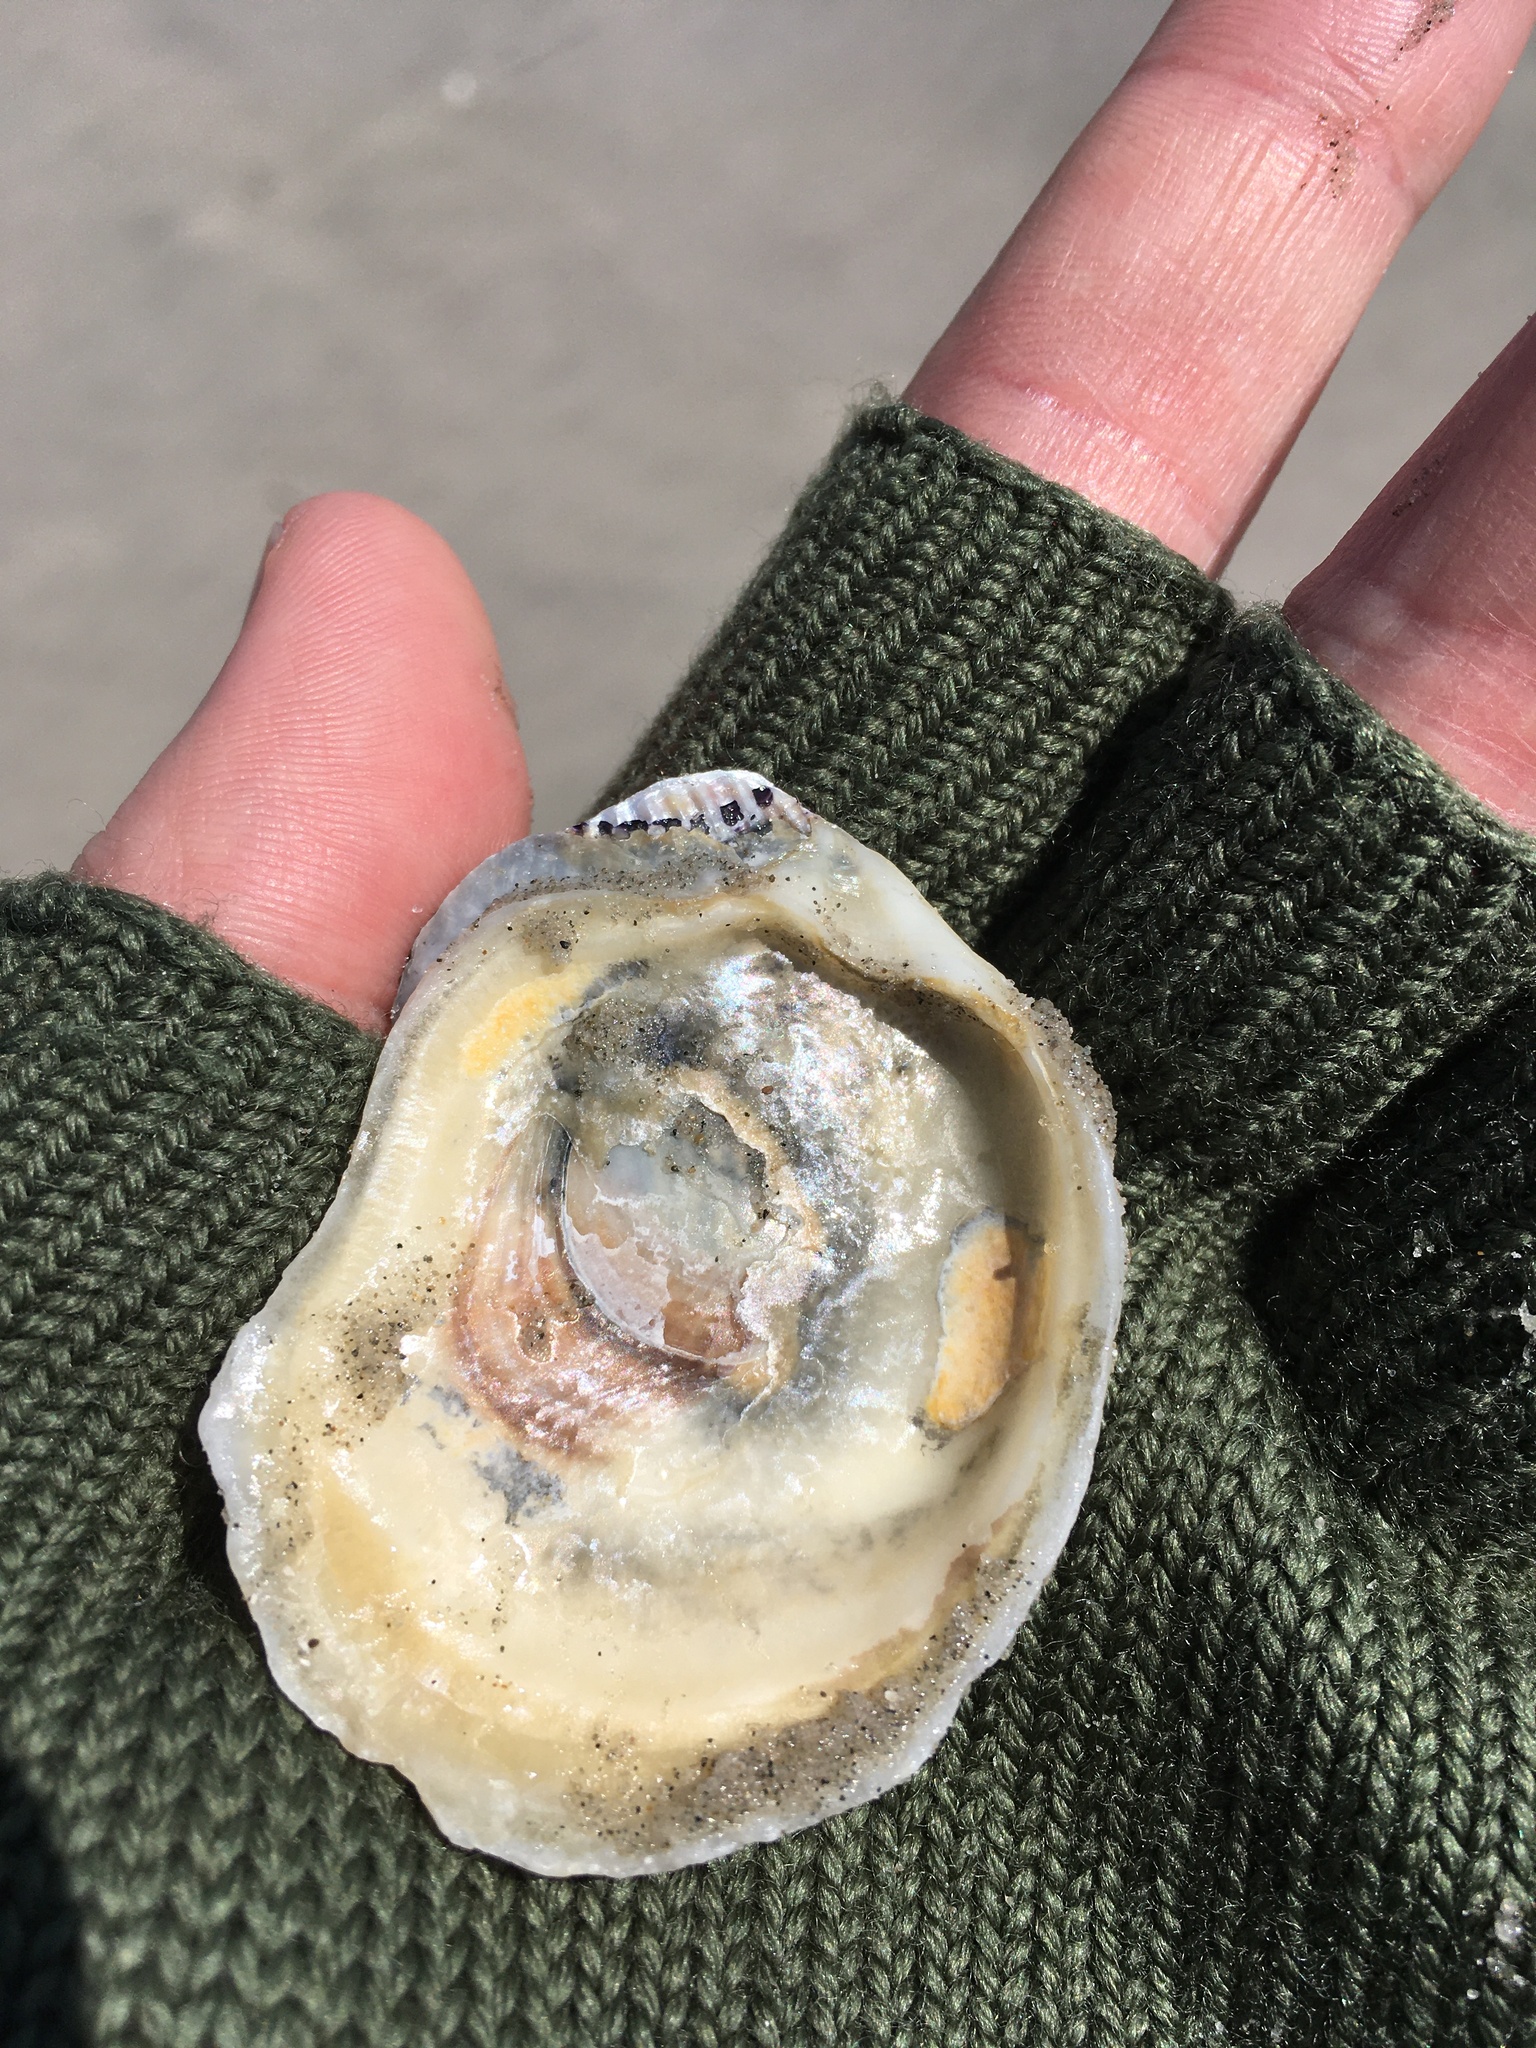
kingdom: Animalia
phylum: Mollusca
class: Bivalvia
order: Mytilida
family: Mytilidae
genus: Geukensia
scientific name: Geukensia demissa
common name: Ribbed mussel
